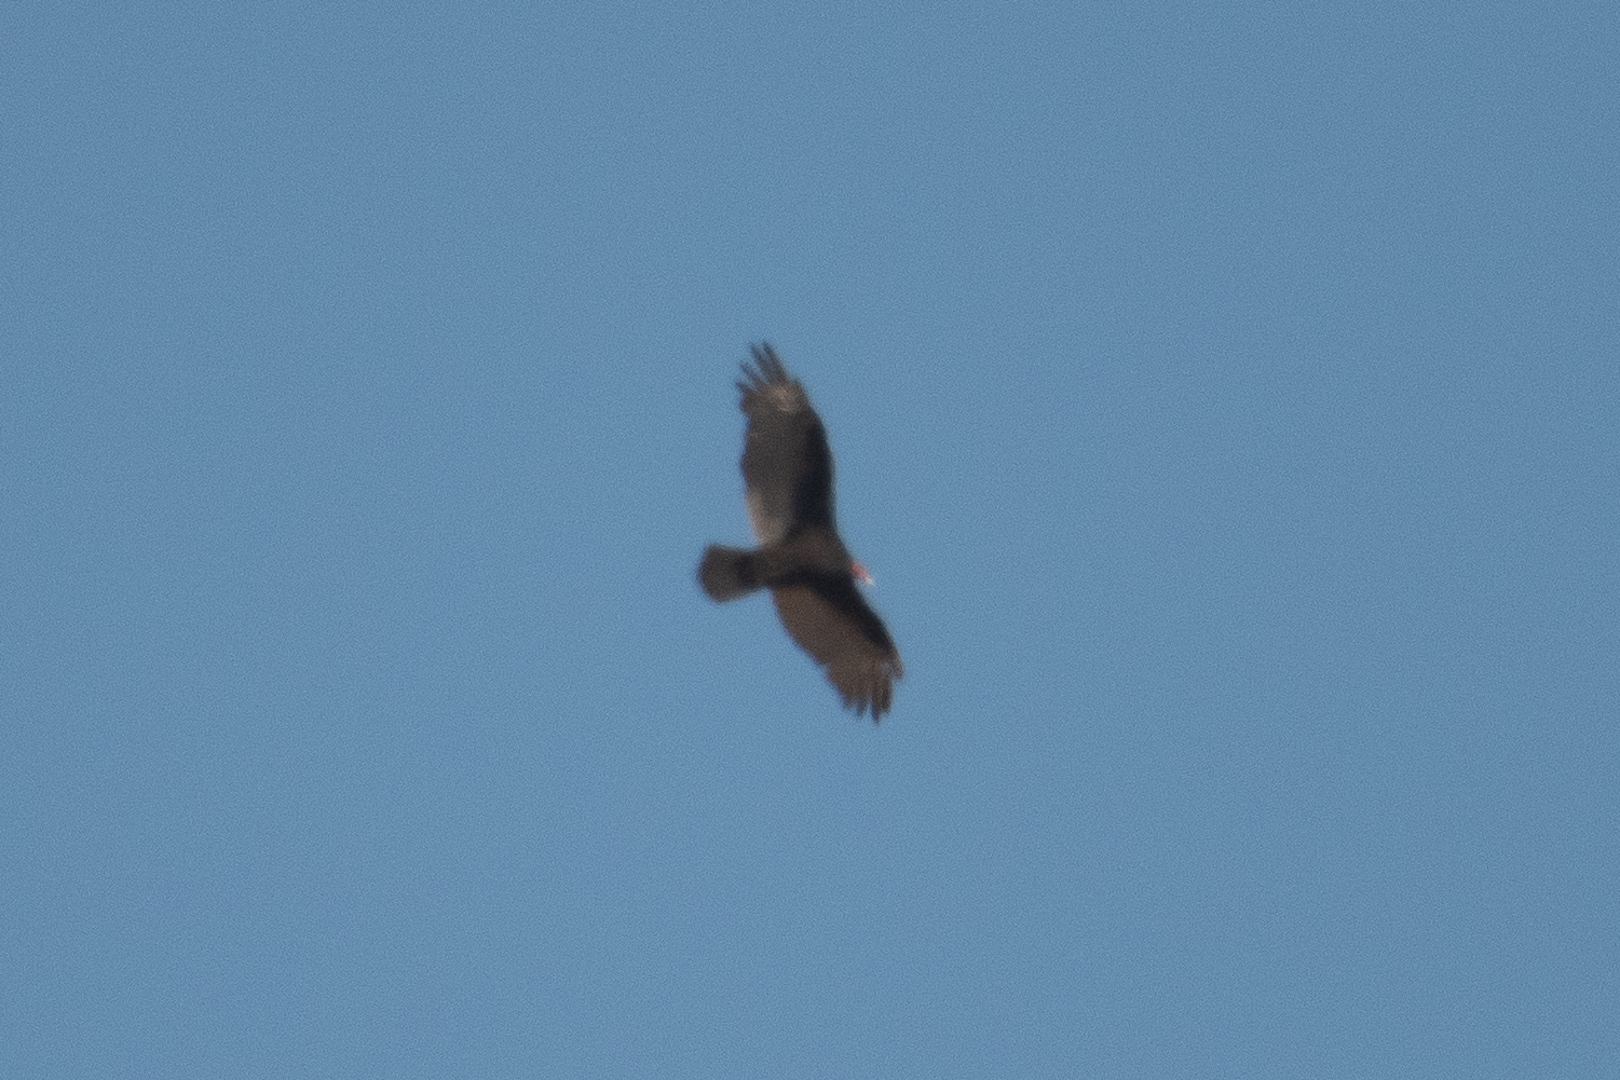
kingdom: Animalia
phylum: Chordata
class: Aves
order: Accipitriformes
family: Cathartidae
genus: Cathartes
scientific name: Cathartes aura
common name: Turkey vulture
